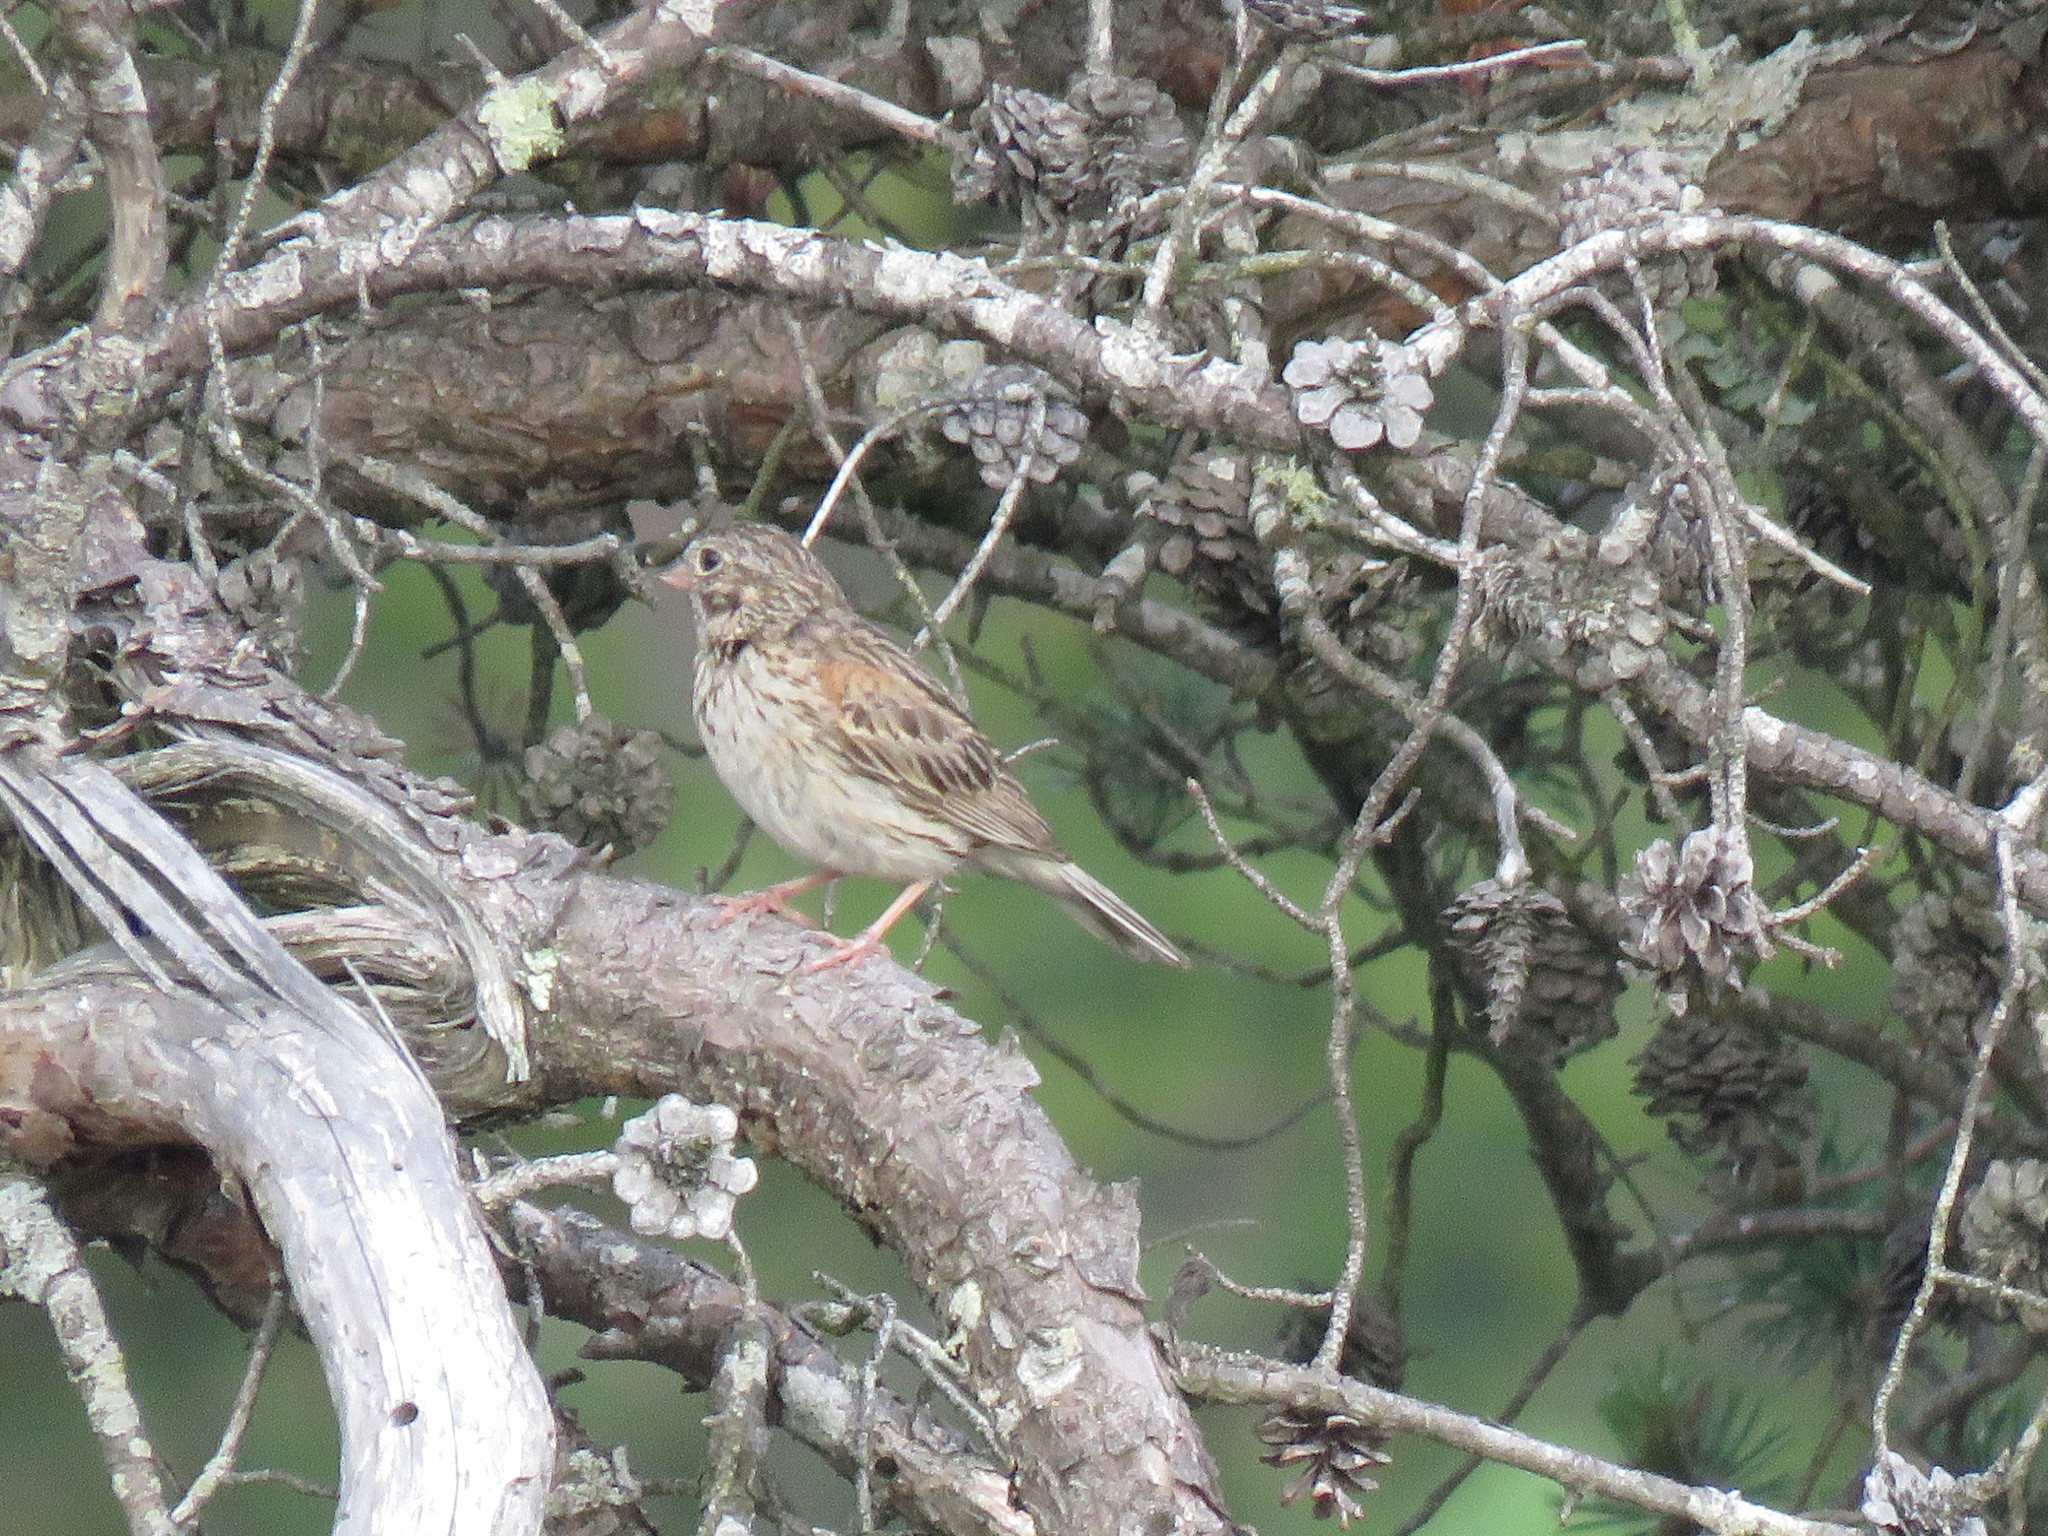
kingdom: Animalia
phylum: Chordata
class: Aves
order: Passeriformes
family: Passerellidae
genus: Pooecetes
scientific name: Pooecetes gramineus
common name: Vesper sparrow
